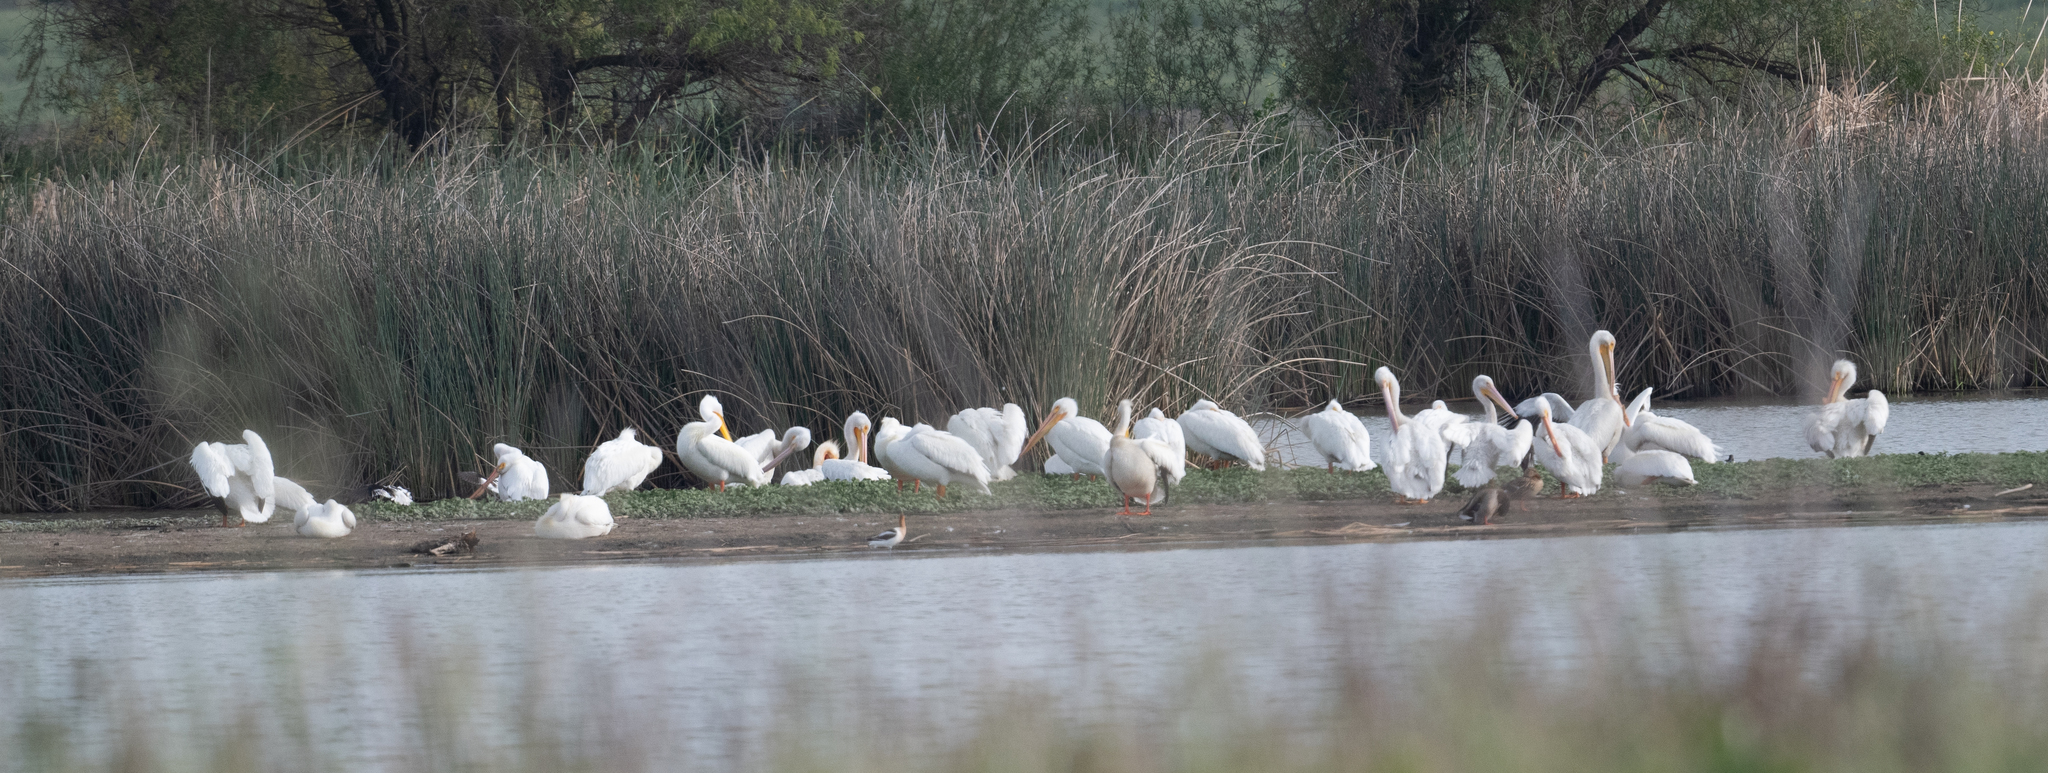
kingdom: Animalia
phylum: Chordata
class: Aves
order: Pelecaniformes
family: Pelecanidae
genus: Pelecanus
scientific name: Pelecanus erythrorhynchos
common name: American white pelican
